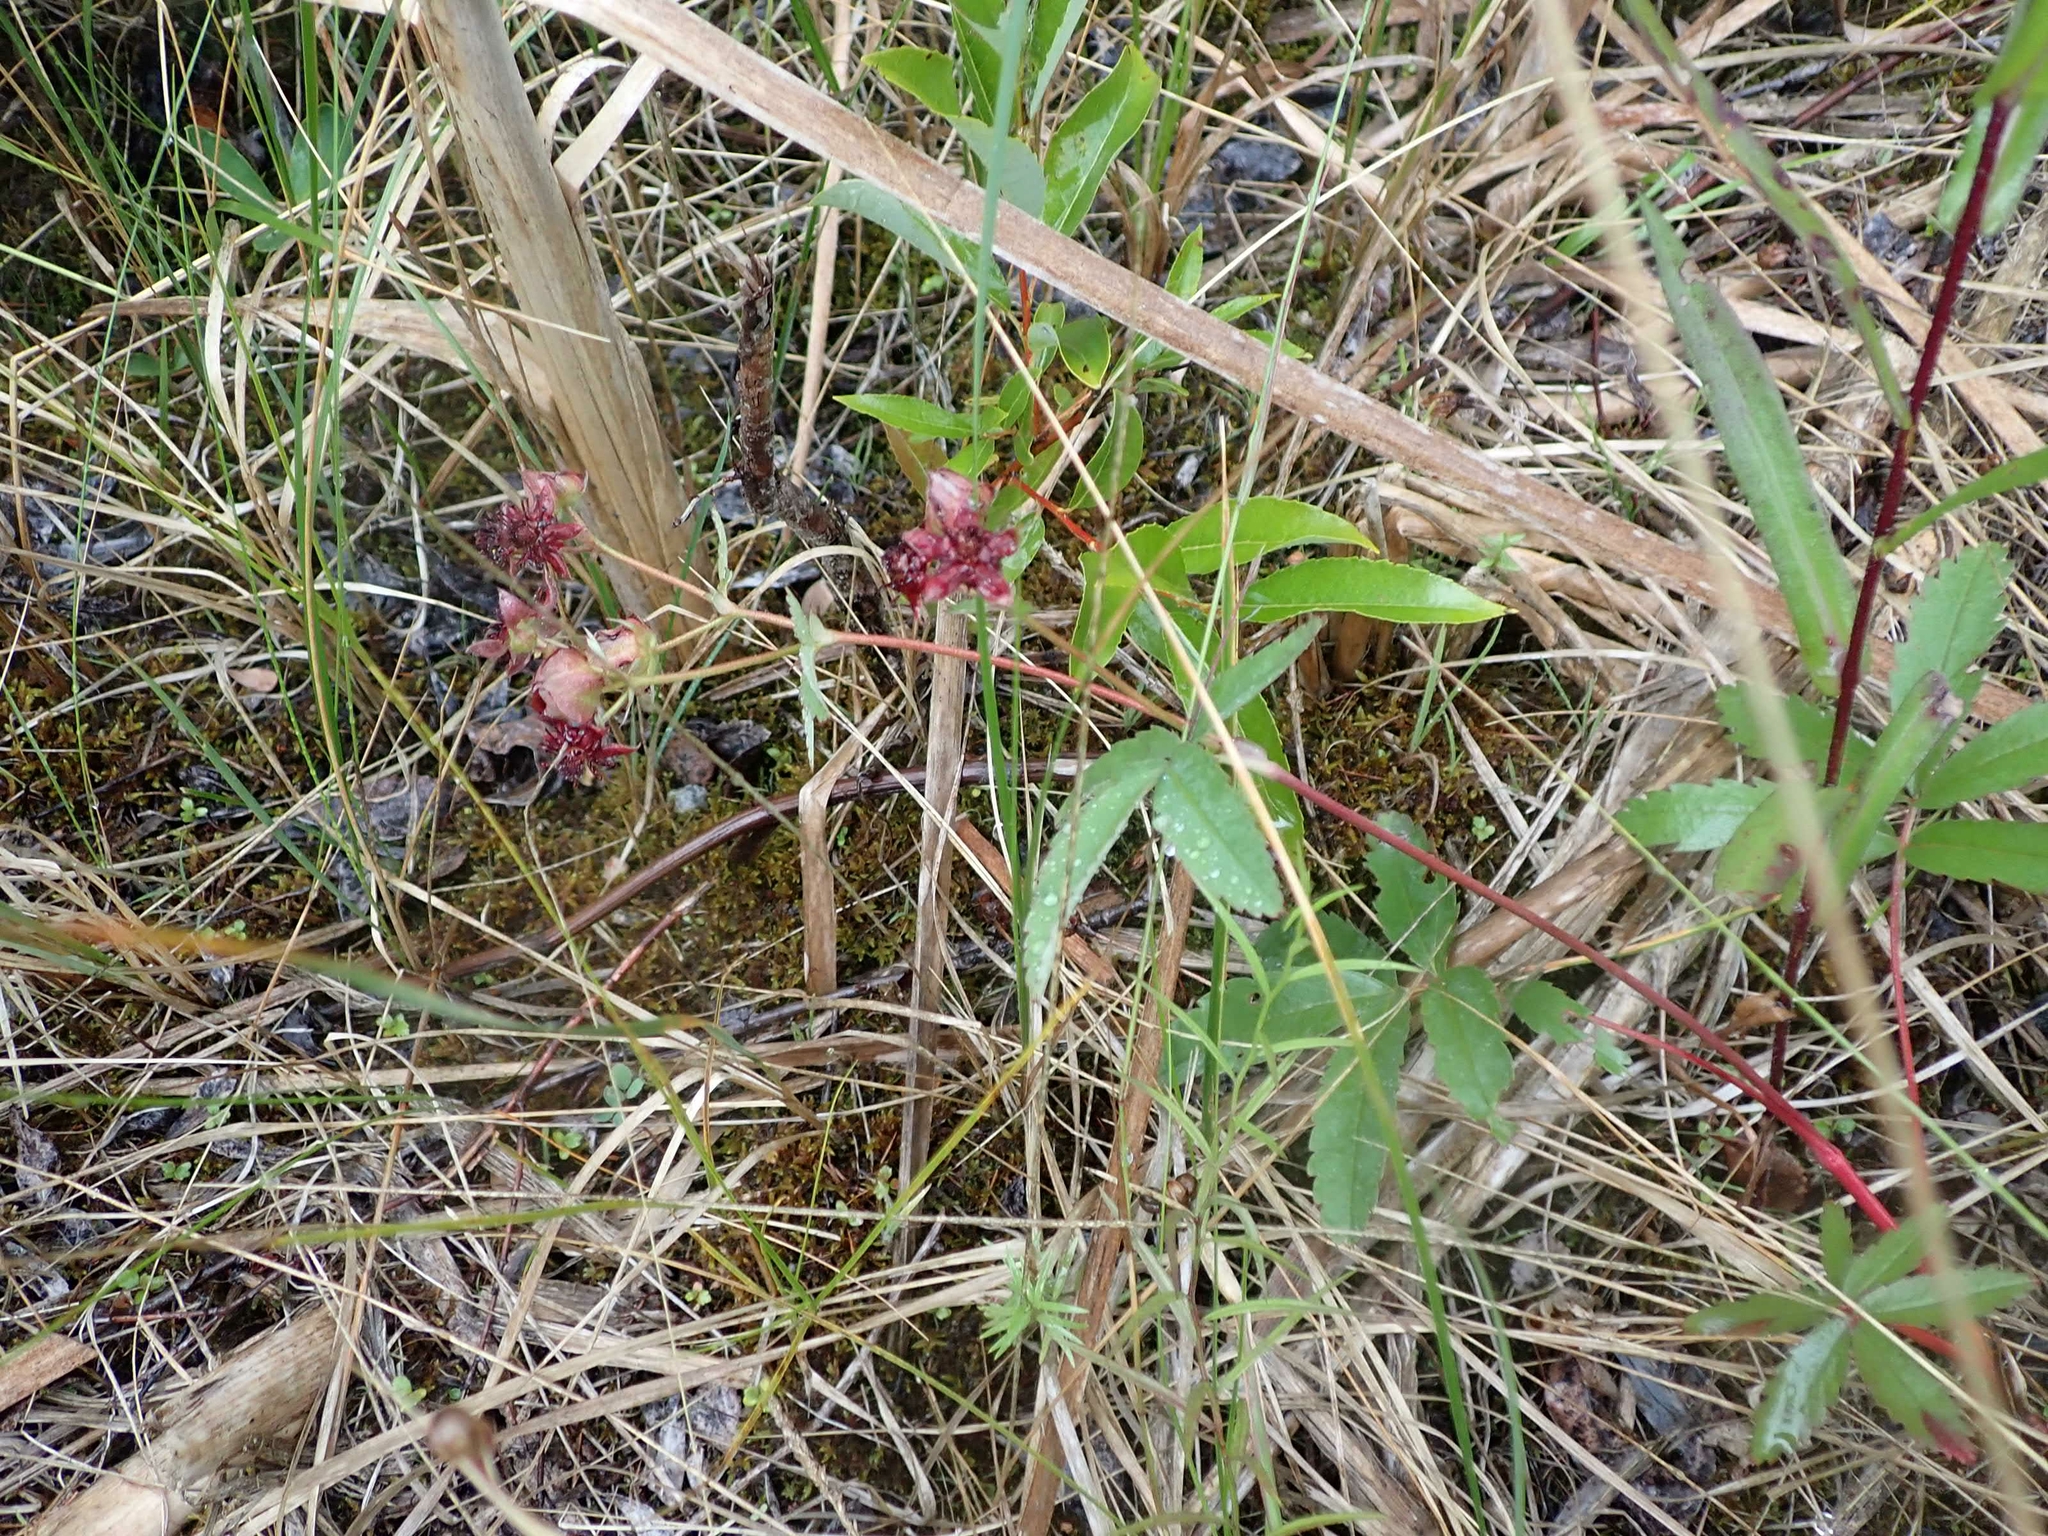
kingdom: Plantae
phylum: Tracheophyta
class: Magnoliopsida
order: Rosales
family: Rosaceae
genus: Comarum
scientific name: Comarum palustre
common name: Marsh cinquefoil
